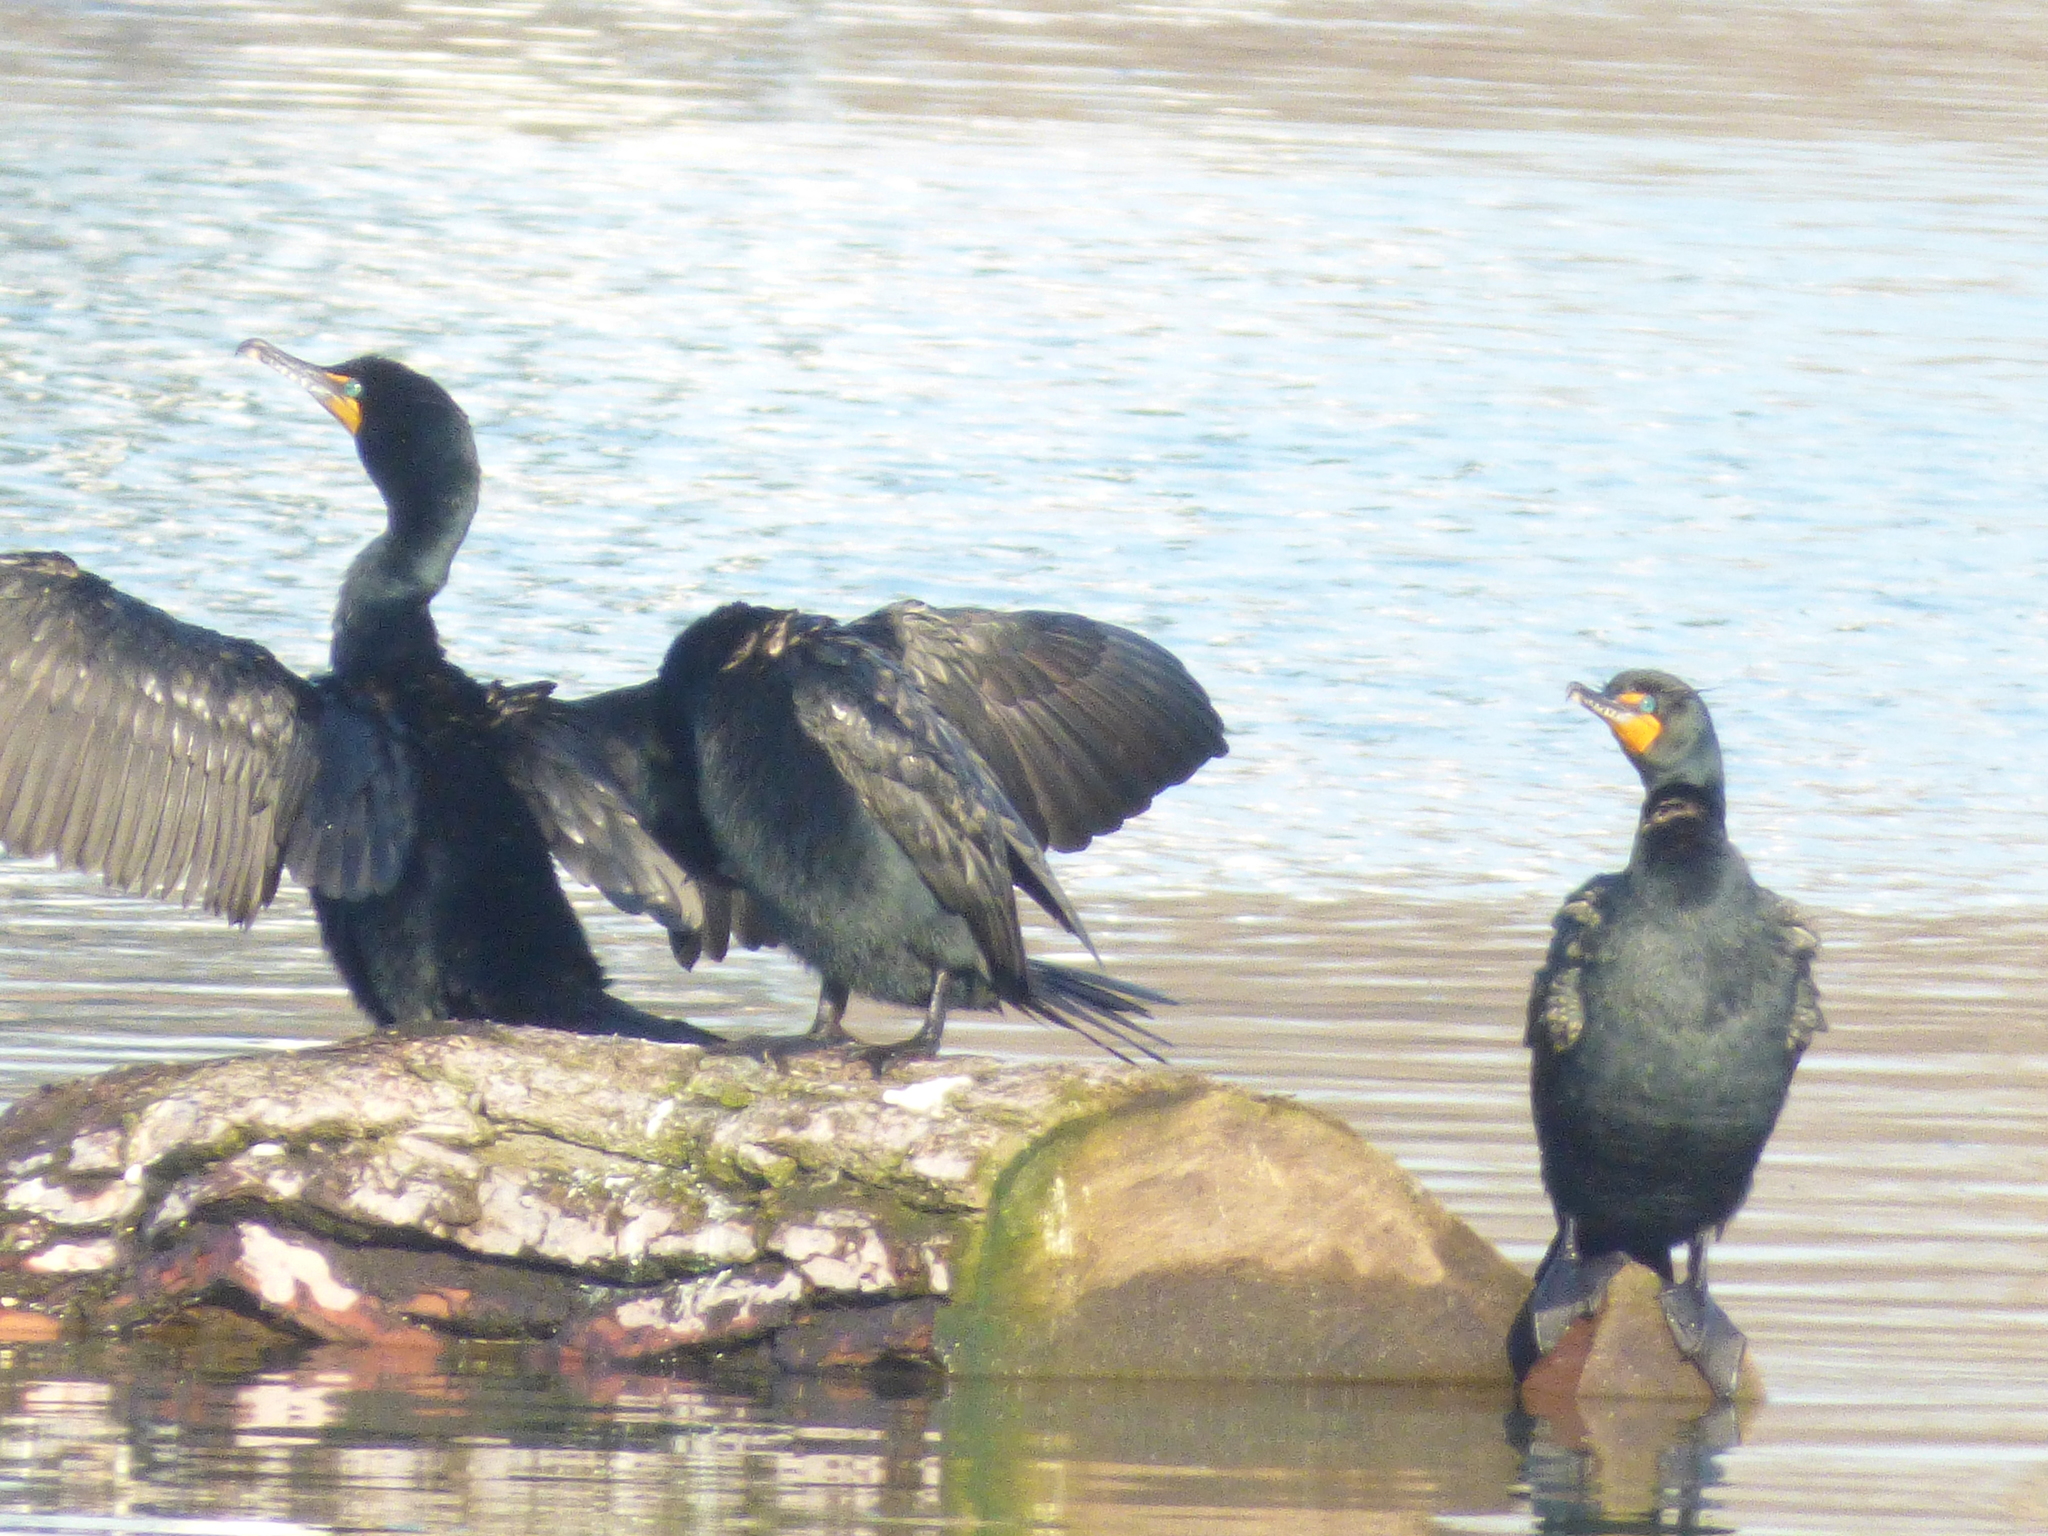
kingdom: Animalia
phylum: Chordata
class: Aves
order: Suliformes
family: Phalacrocoracidae
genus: Phalacrocorax
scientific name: Phalacrocorax auritus
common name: Double-crested cormorant
